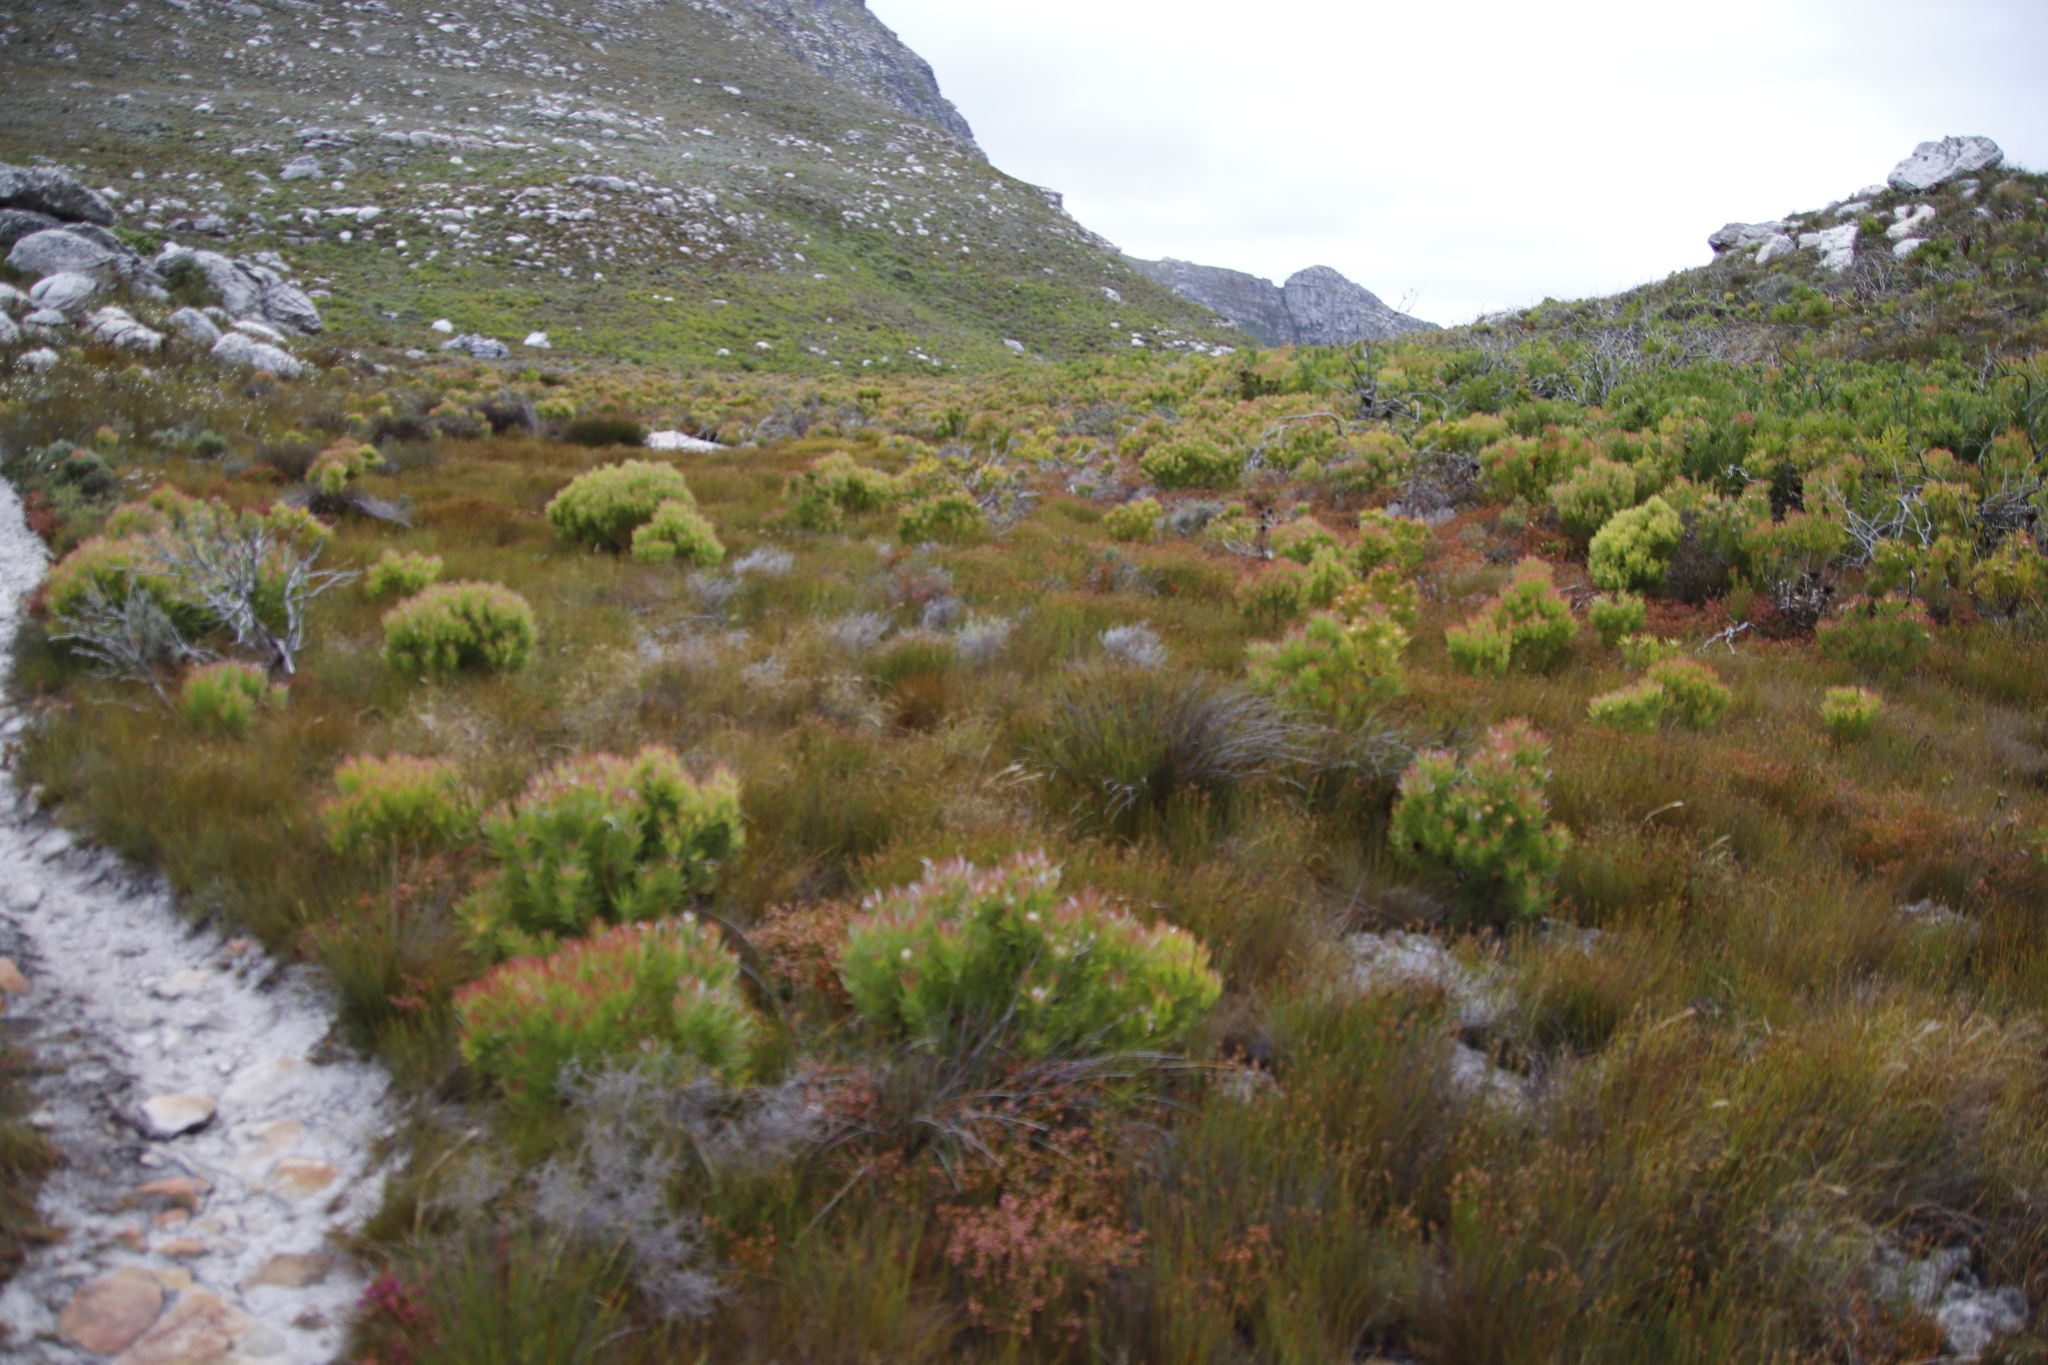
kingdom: Plantae
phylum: Tracheophyta
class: Magnoliopsida
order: Proteales
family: Proteaceae
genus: Leucadendron
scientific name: Leucadendron xanthoconus
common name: Sickle-leaf conebush
